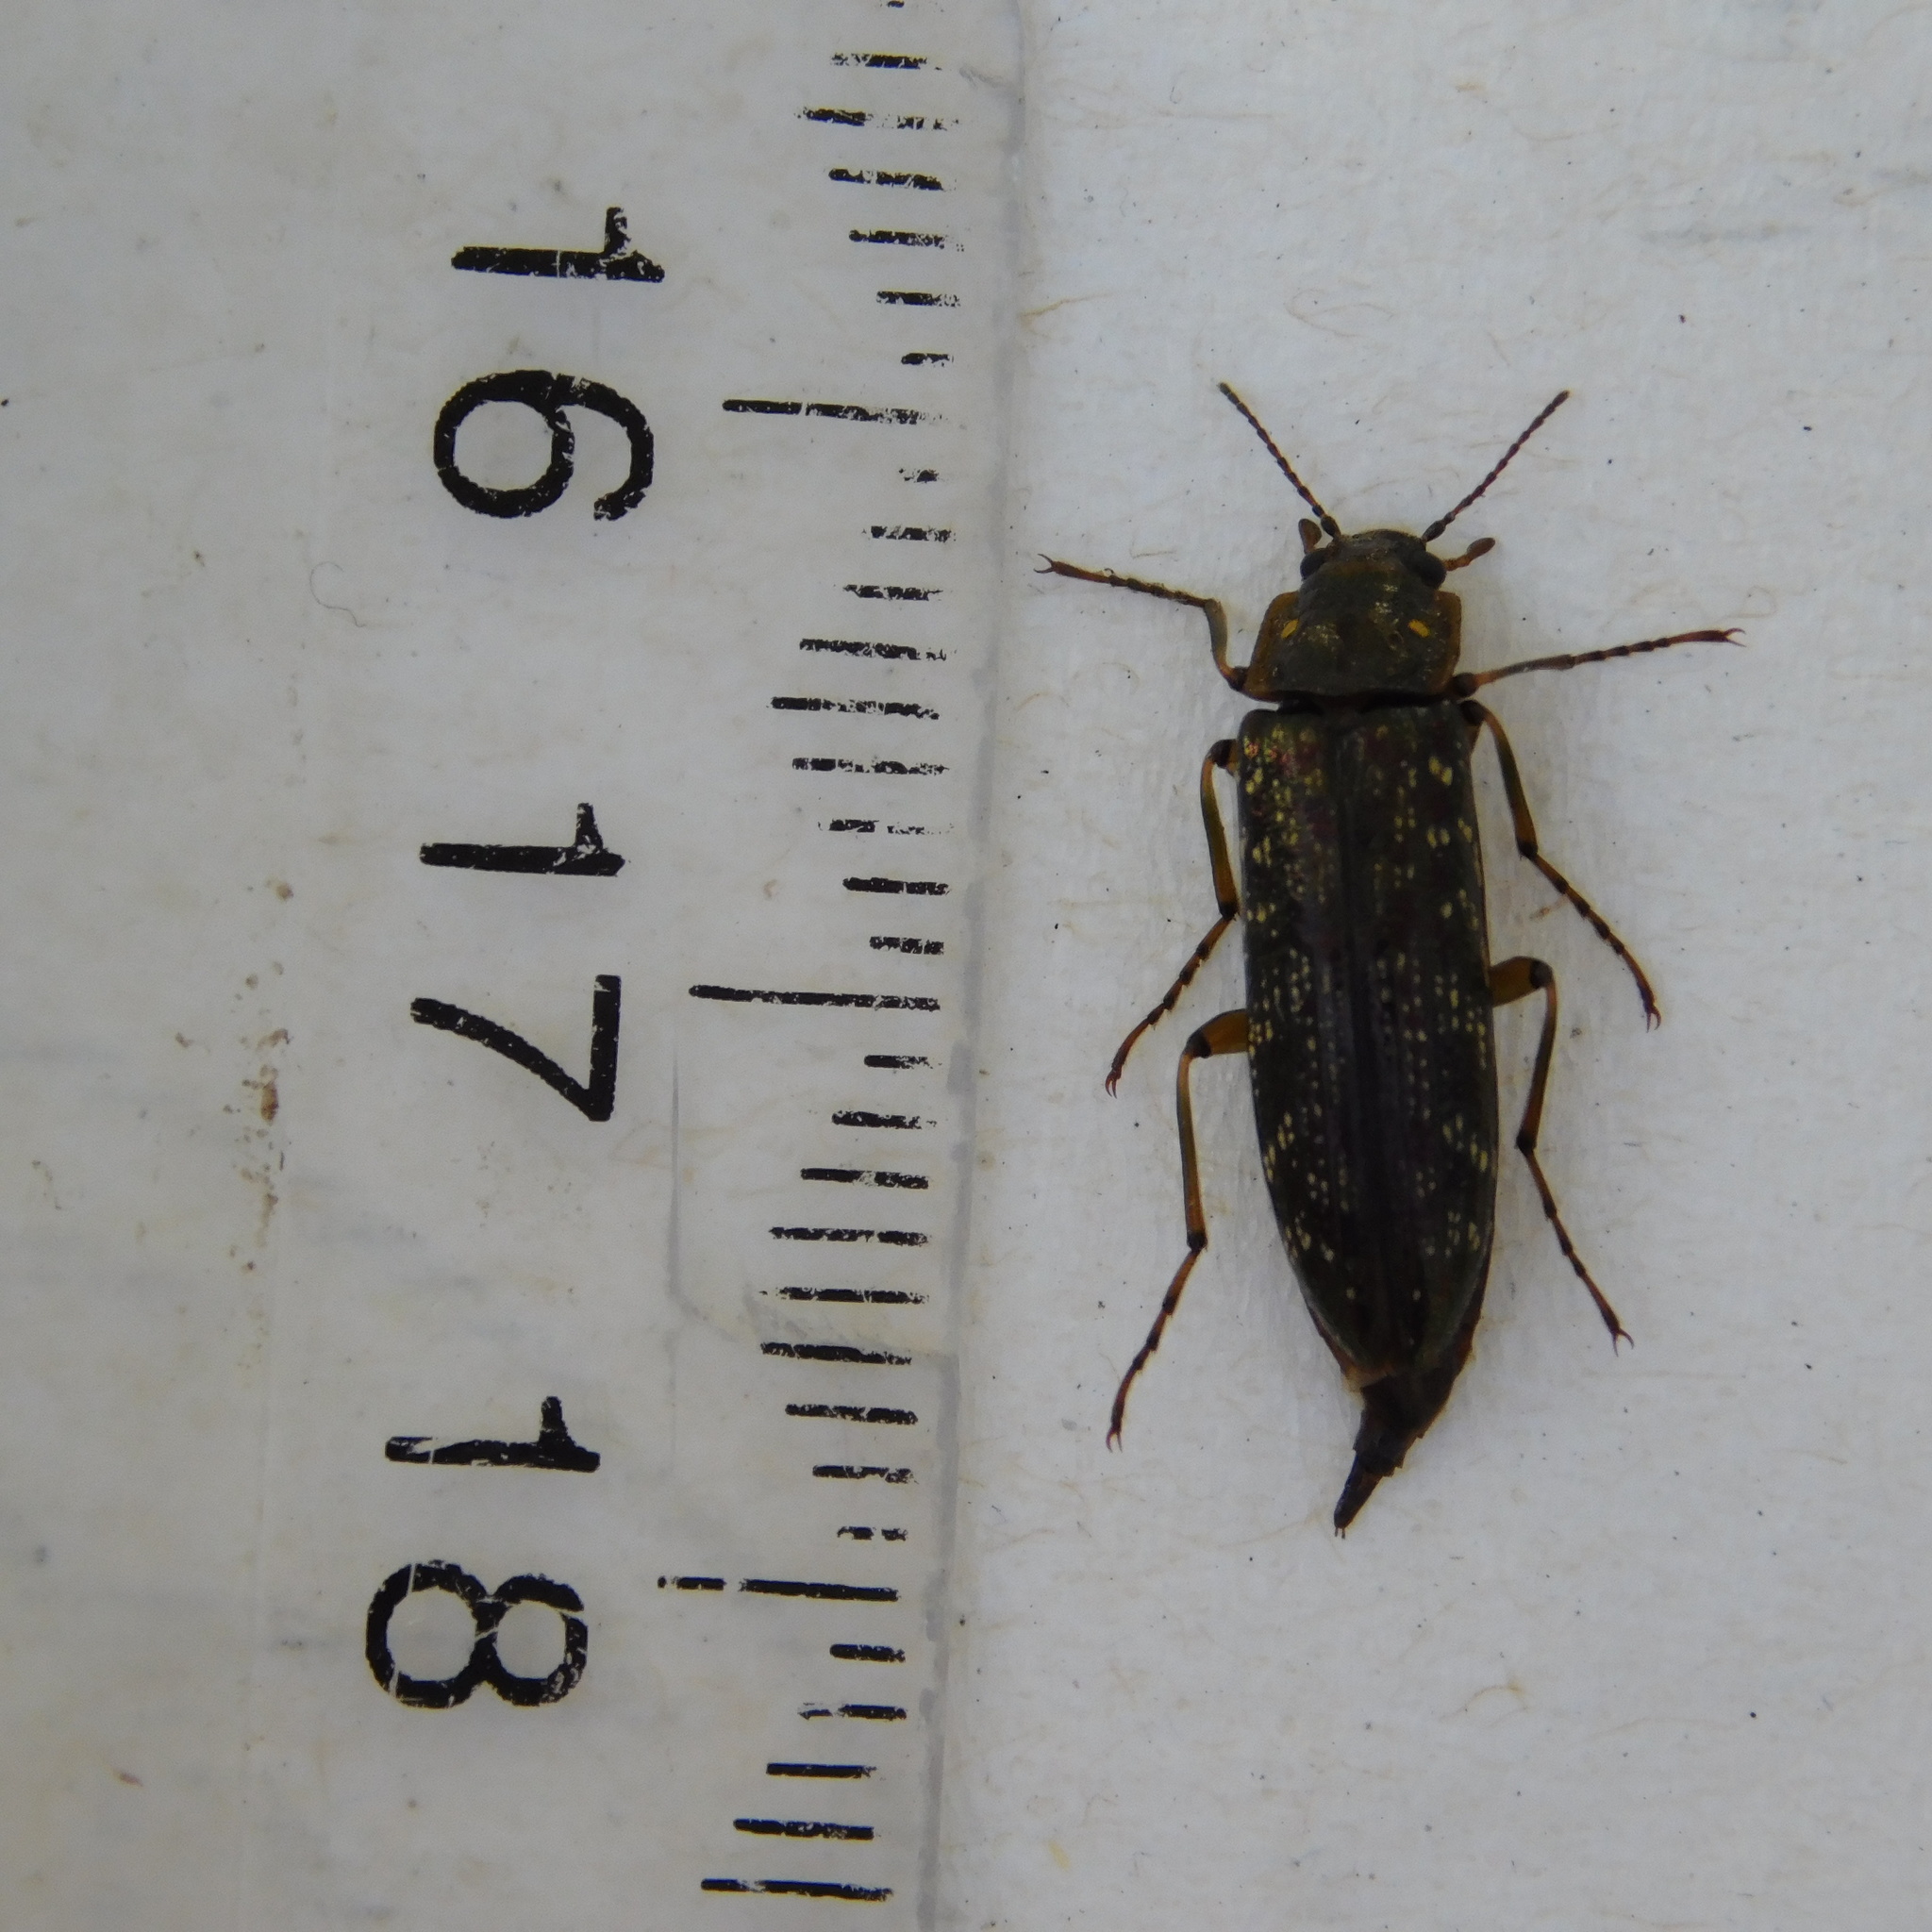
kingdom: Animalia
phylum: Arthropoda
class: Insecta
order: Coleoptera
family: Chalcodryidae
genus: Chalcodrya
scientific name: Chalcodrya
